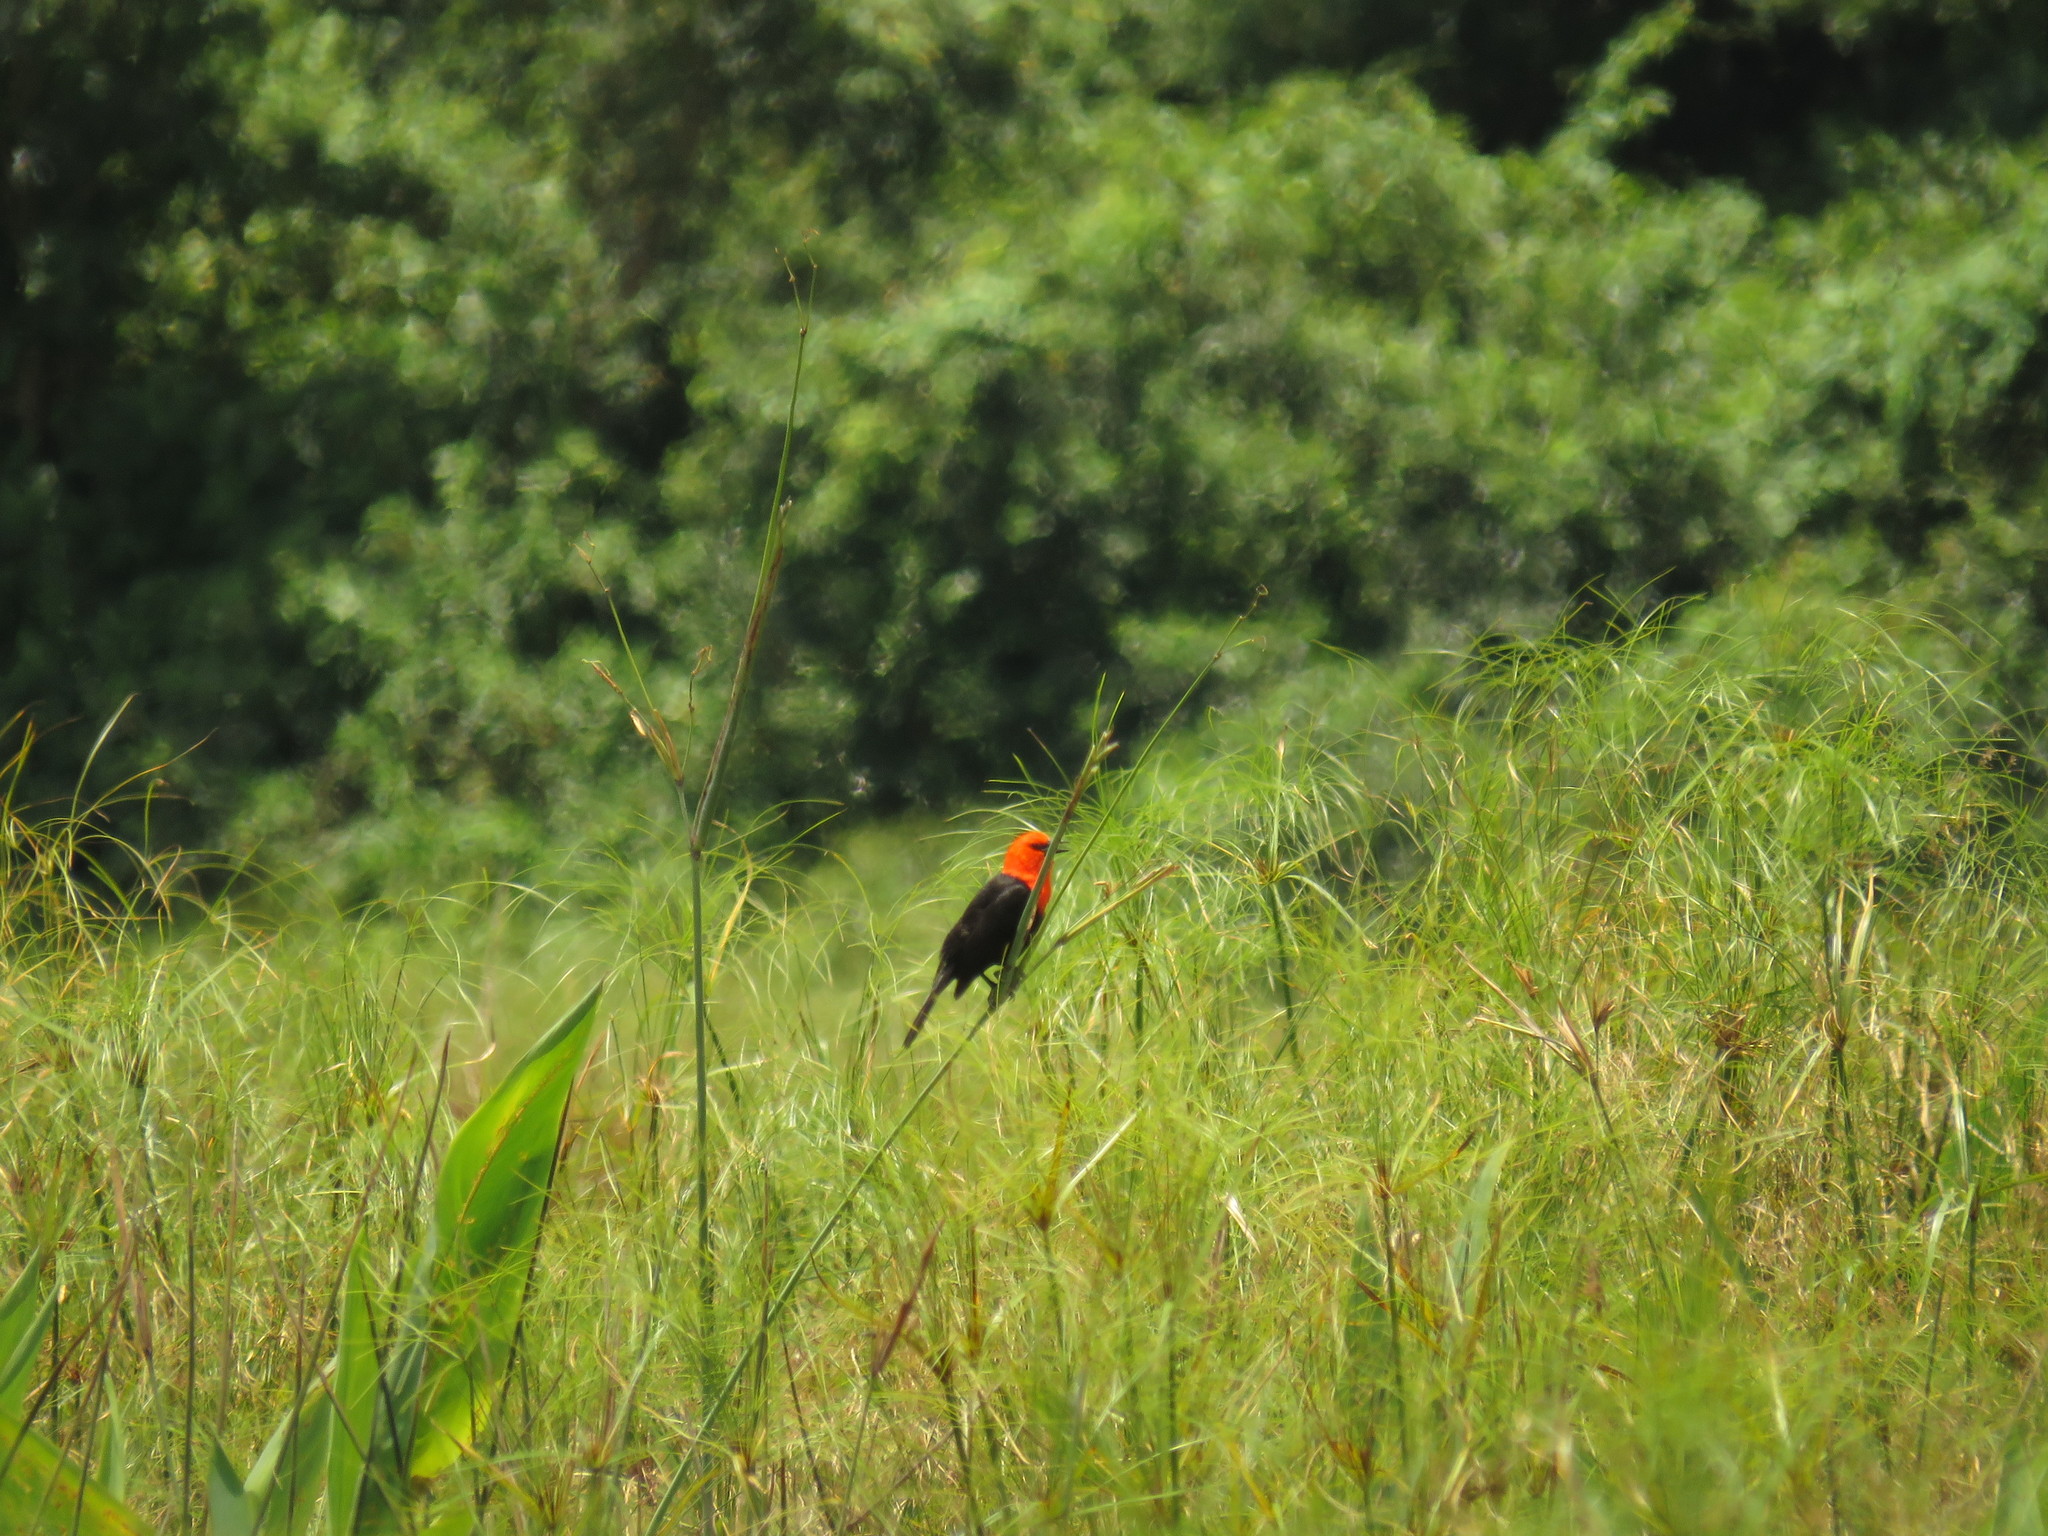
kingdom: Animalia
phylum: Chordata
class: Aves
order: Passeriformes
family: Icteridae
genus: Amblyramphus
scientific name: Amblyramphus holosericeus
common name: Scarlet-headed blackbird
